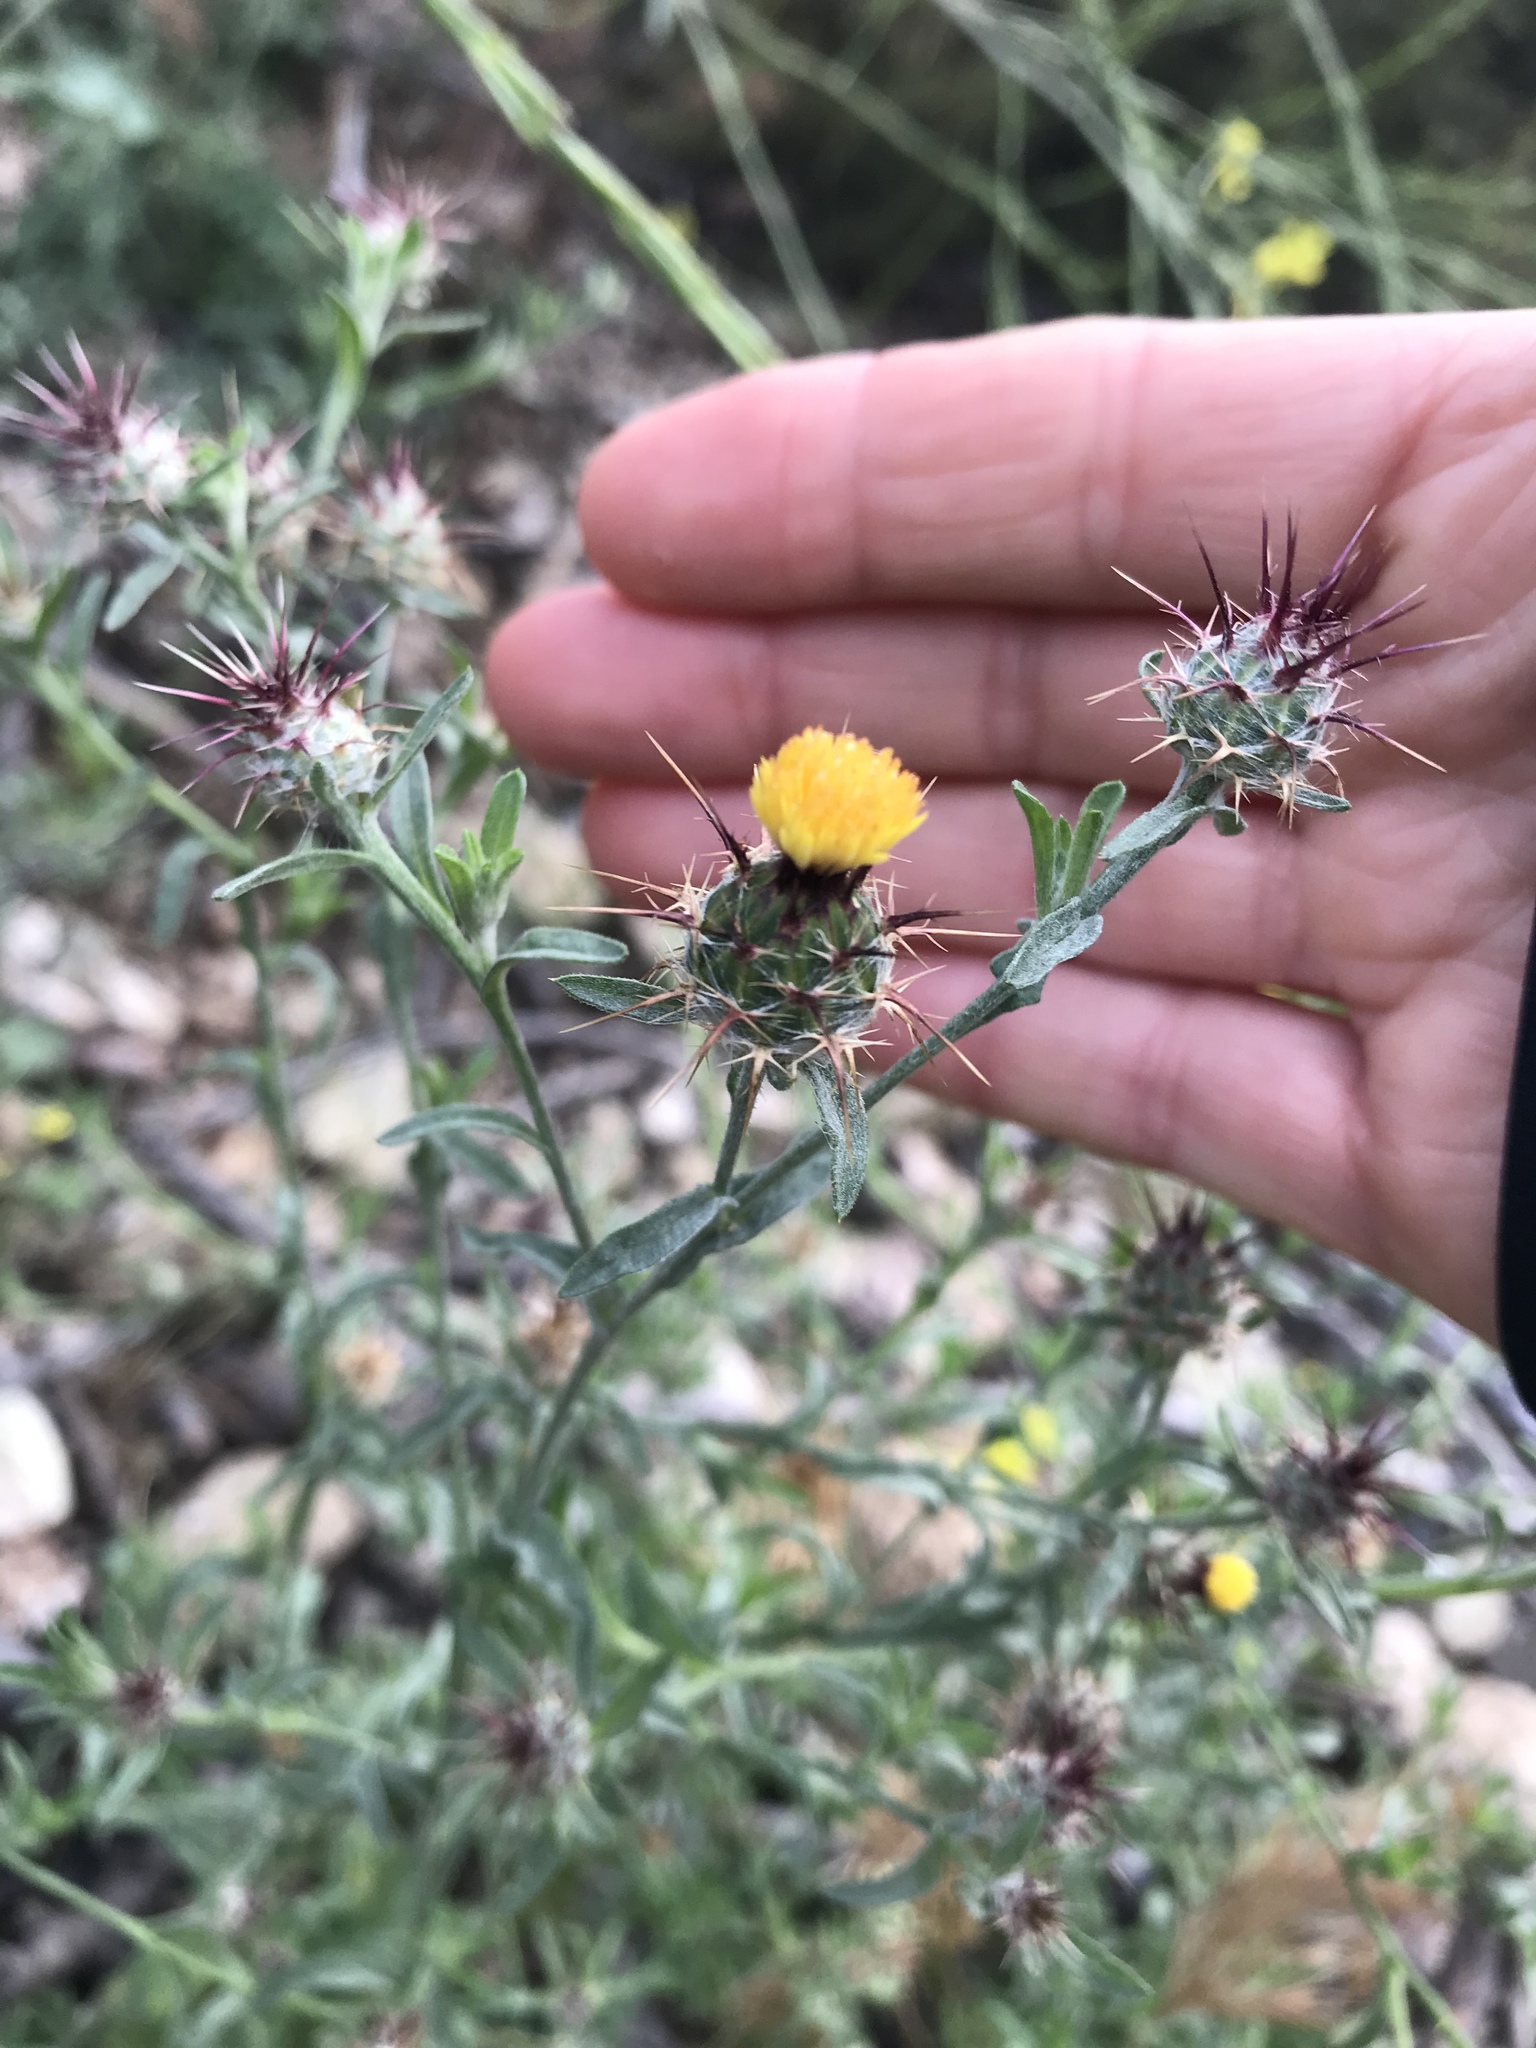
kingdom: Plantae
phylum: Tracheophyta
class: Magnoliopsida
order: Asterales
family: Asteraceae
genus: Centaurea
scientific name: Centaurea melitensis
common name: Maltese star-thistle
